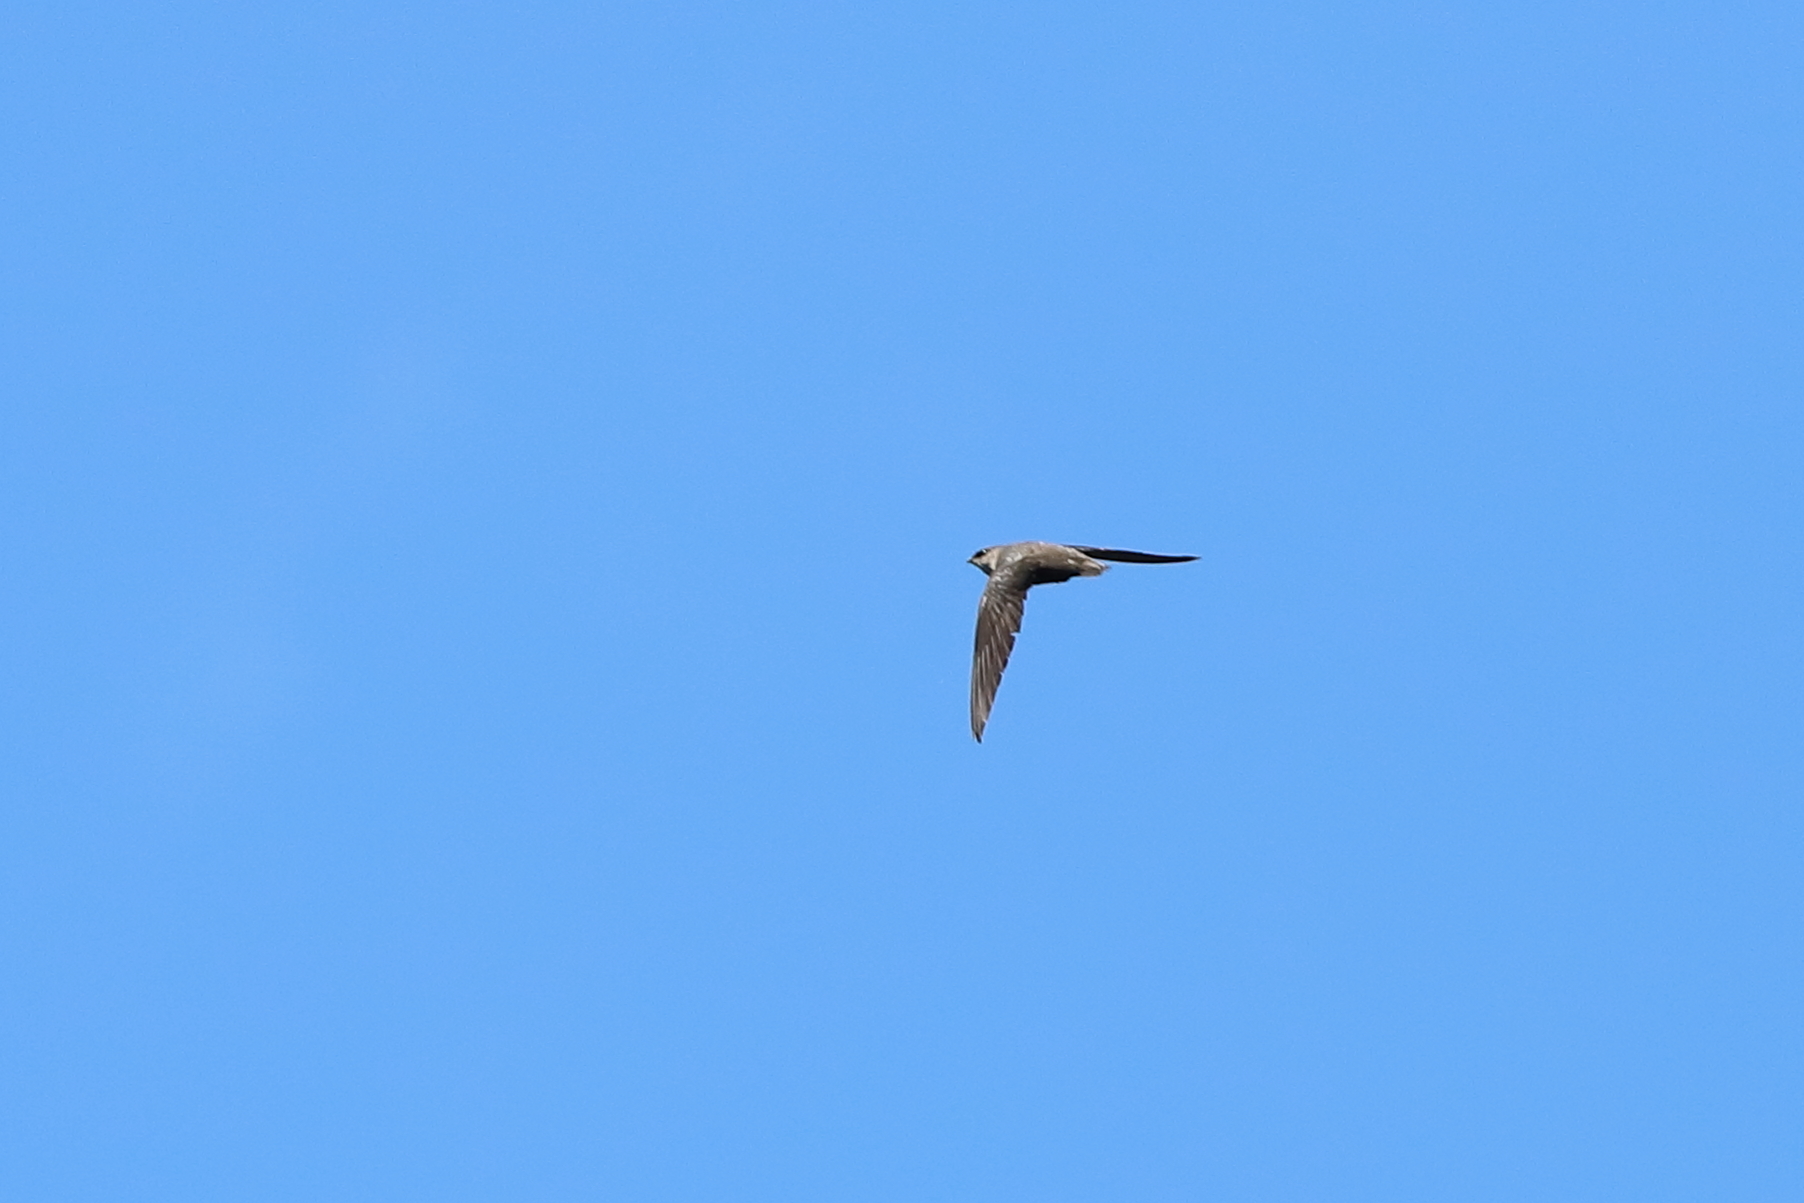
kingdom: Animalia
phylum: Chordata
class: Aves
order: Apodiformes
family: Apodidae
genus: Chaetura
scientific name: Chaetura pelagica
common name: Chimney swift
